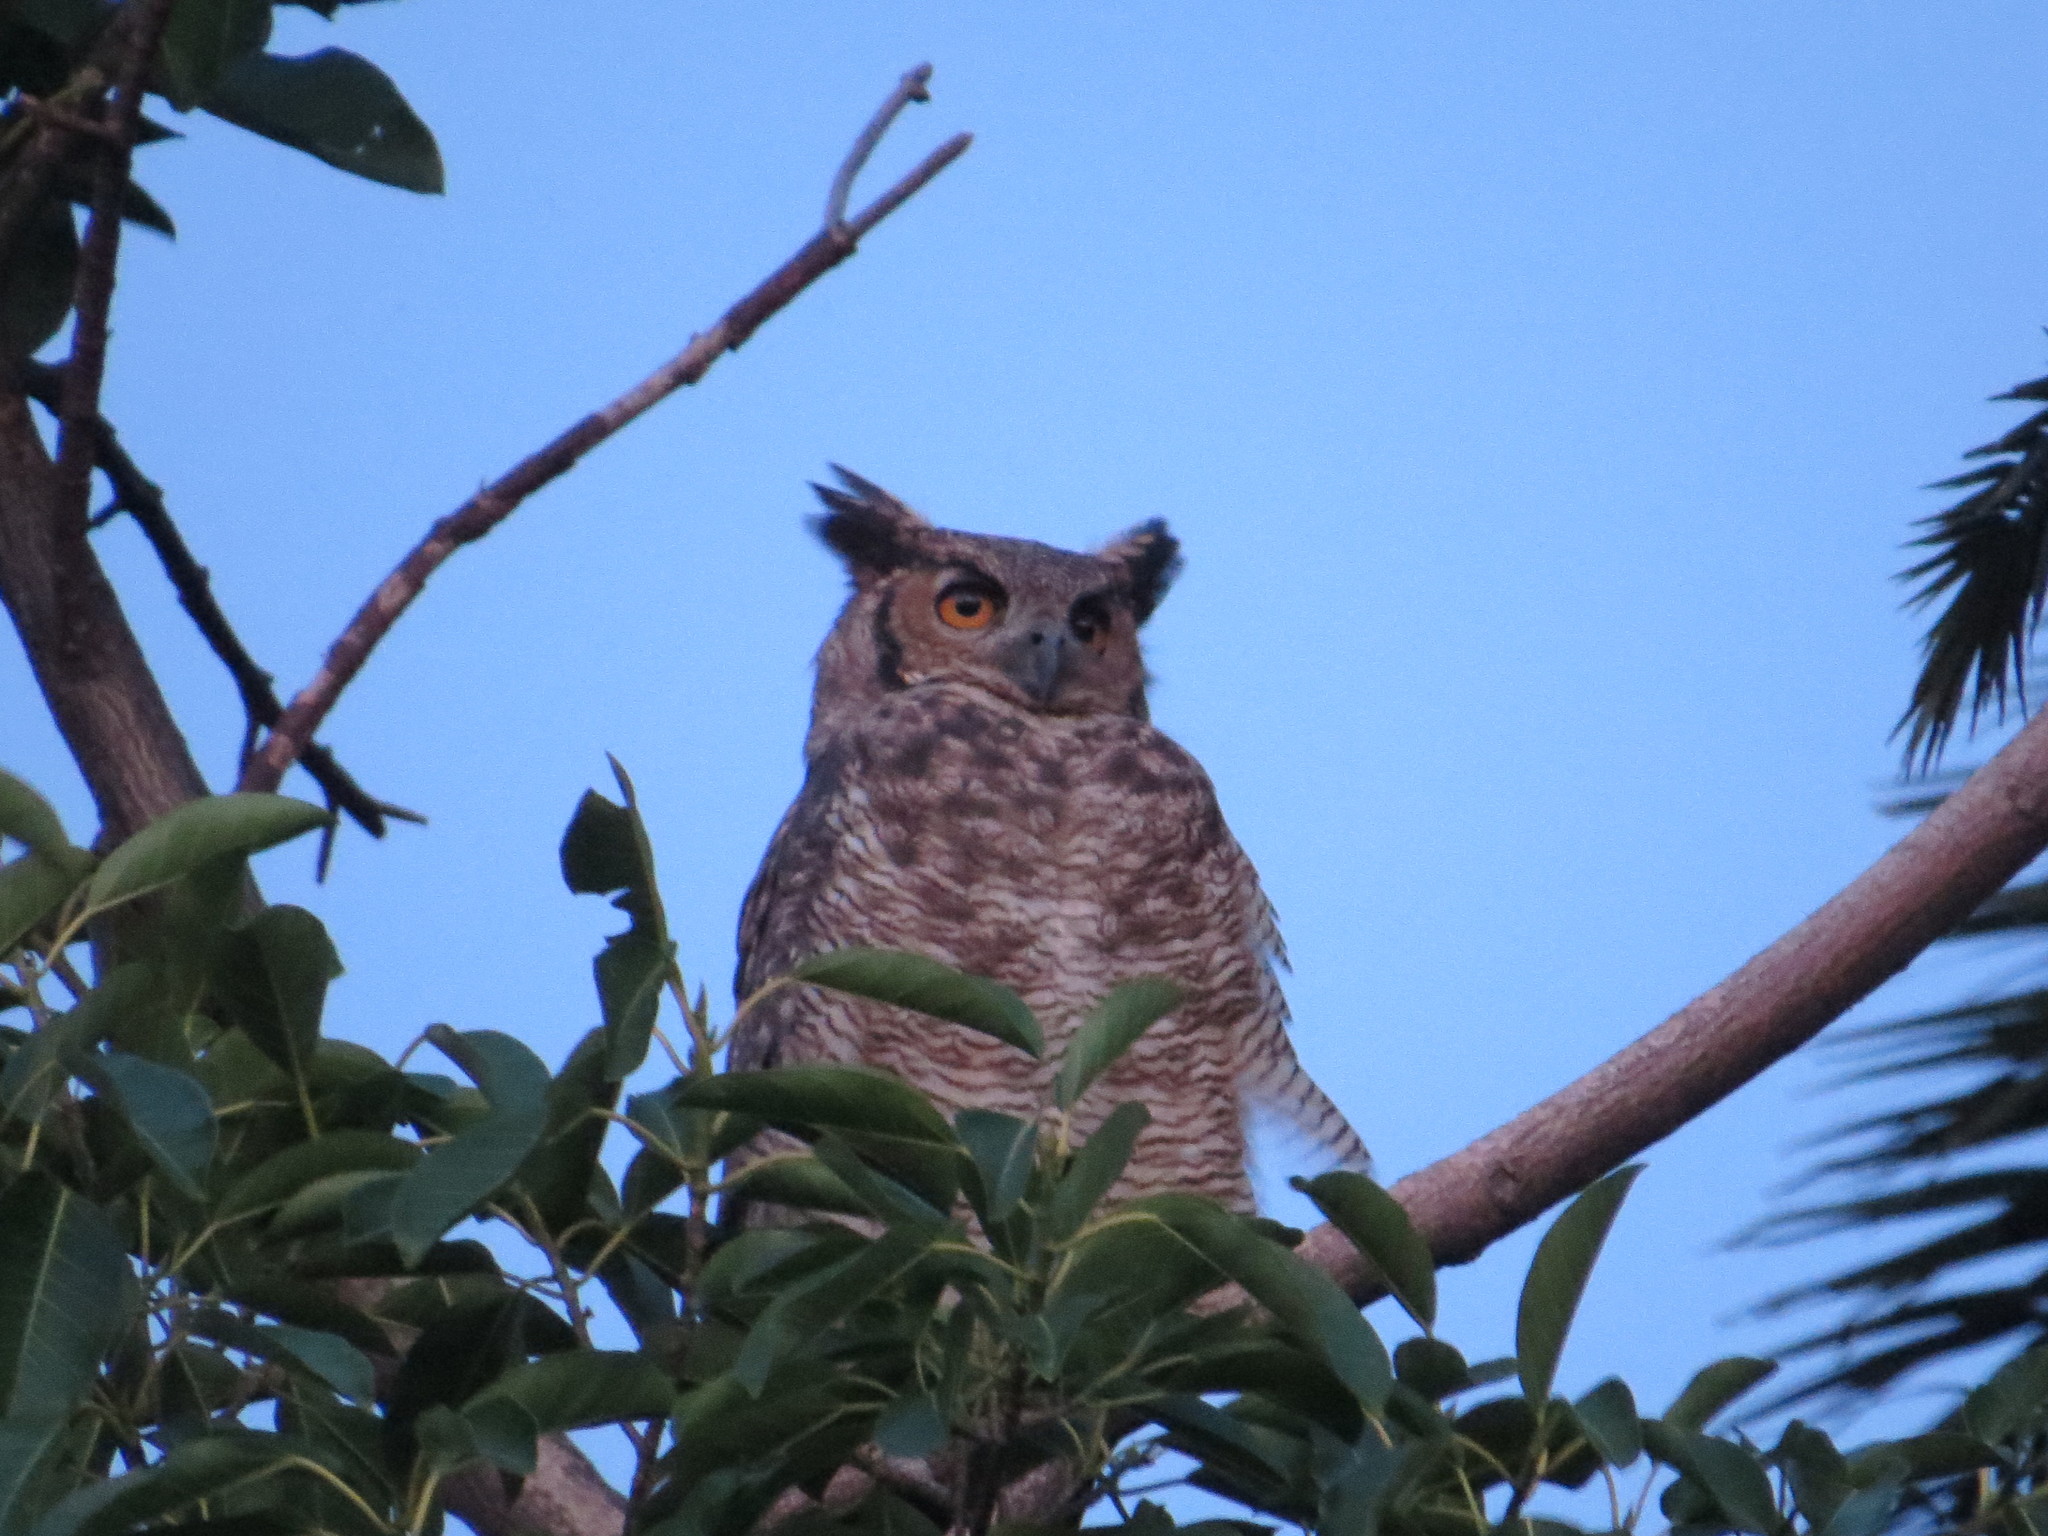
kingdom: Animalia
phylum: Chordata
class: Aves
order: Strigiformes
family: Strigidae
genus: Bubo
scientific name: Bubo virginianus
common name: Great horned owl
